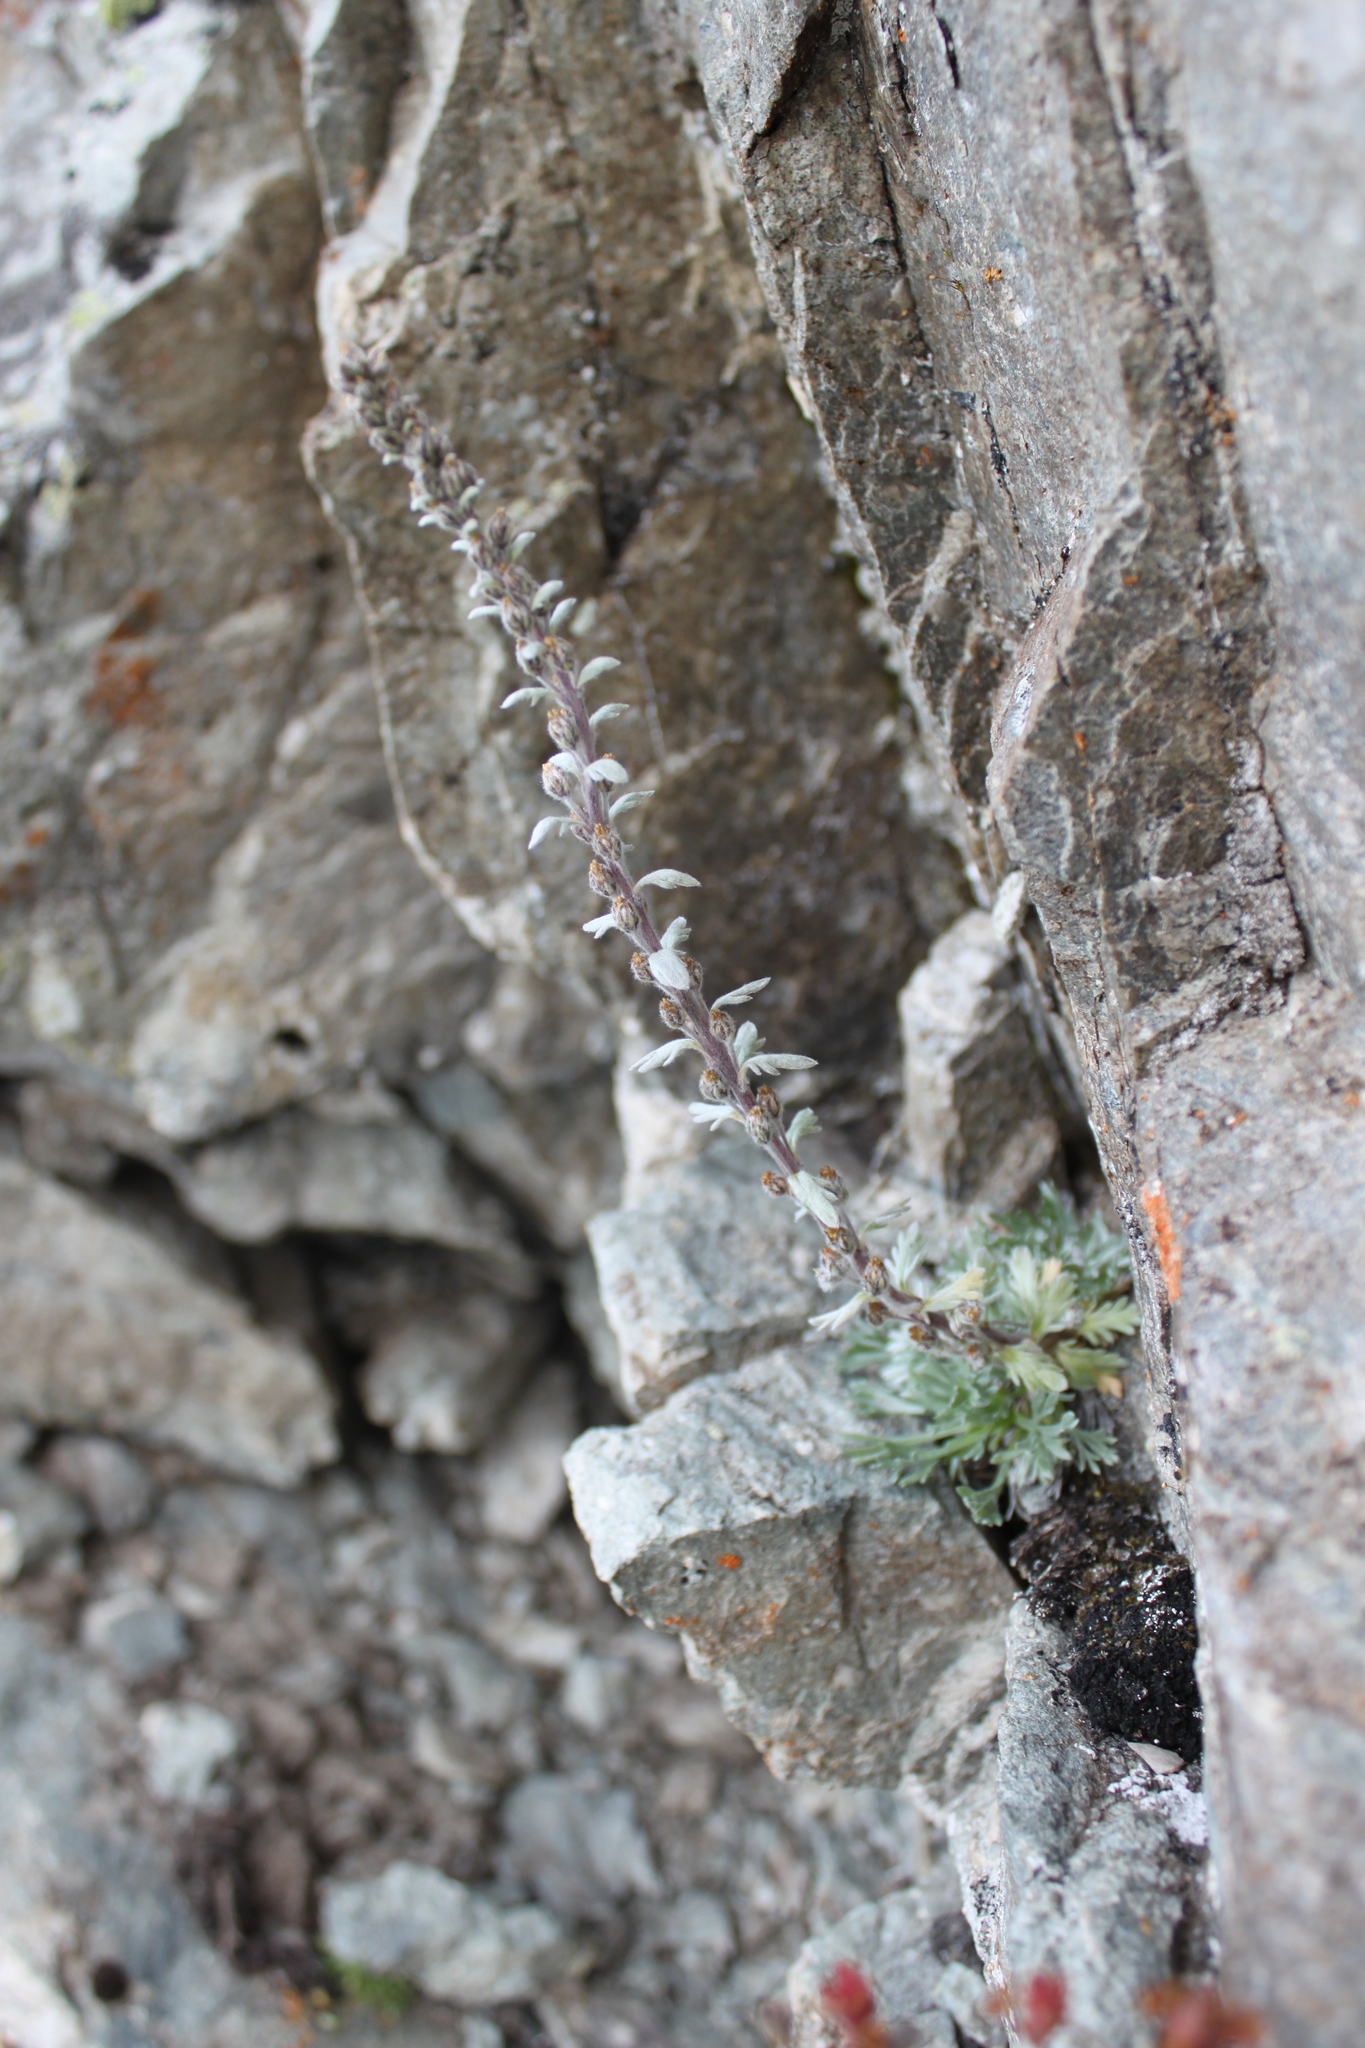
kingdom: Plantae
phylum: Tracheophyta
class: Magnoliopsida
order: Asterales
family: Asteraceae
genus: Artemisia
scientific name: Artemisia genipi
